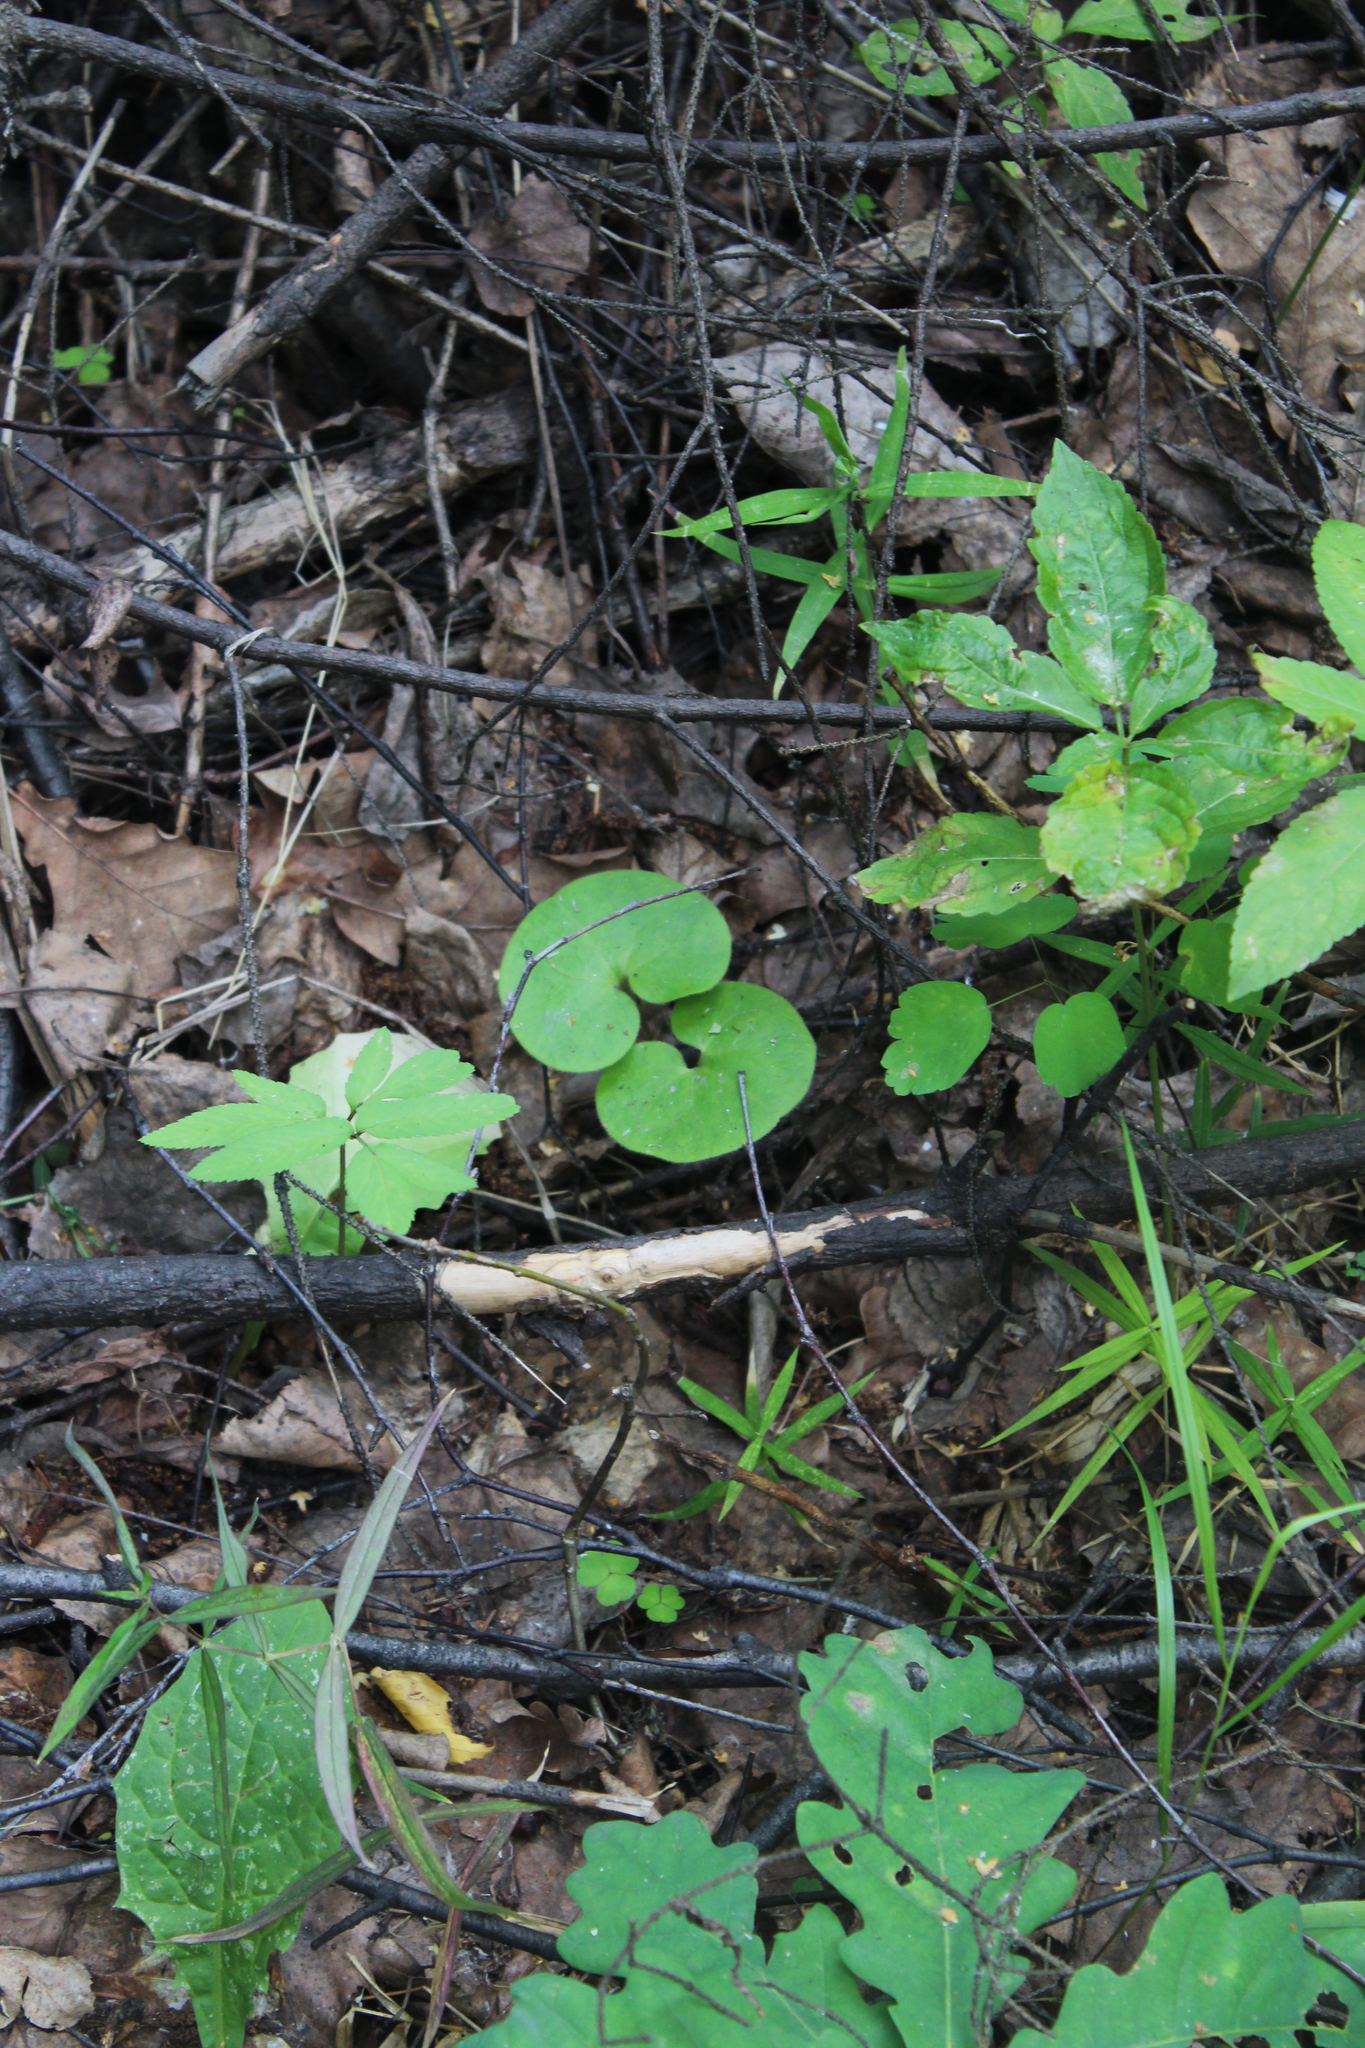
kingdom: Plantae
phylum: Tracheophyta
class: Magnoliopsida
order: Piperales
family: Aristolochiaceae
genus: Asarum
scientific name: Asarum europaeum
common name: Asarabacca
